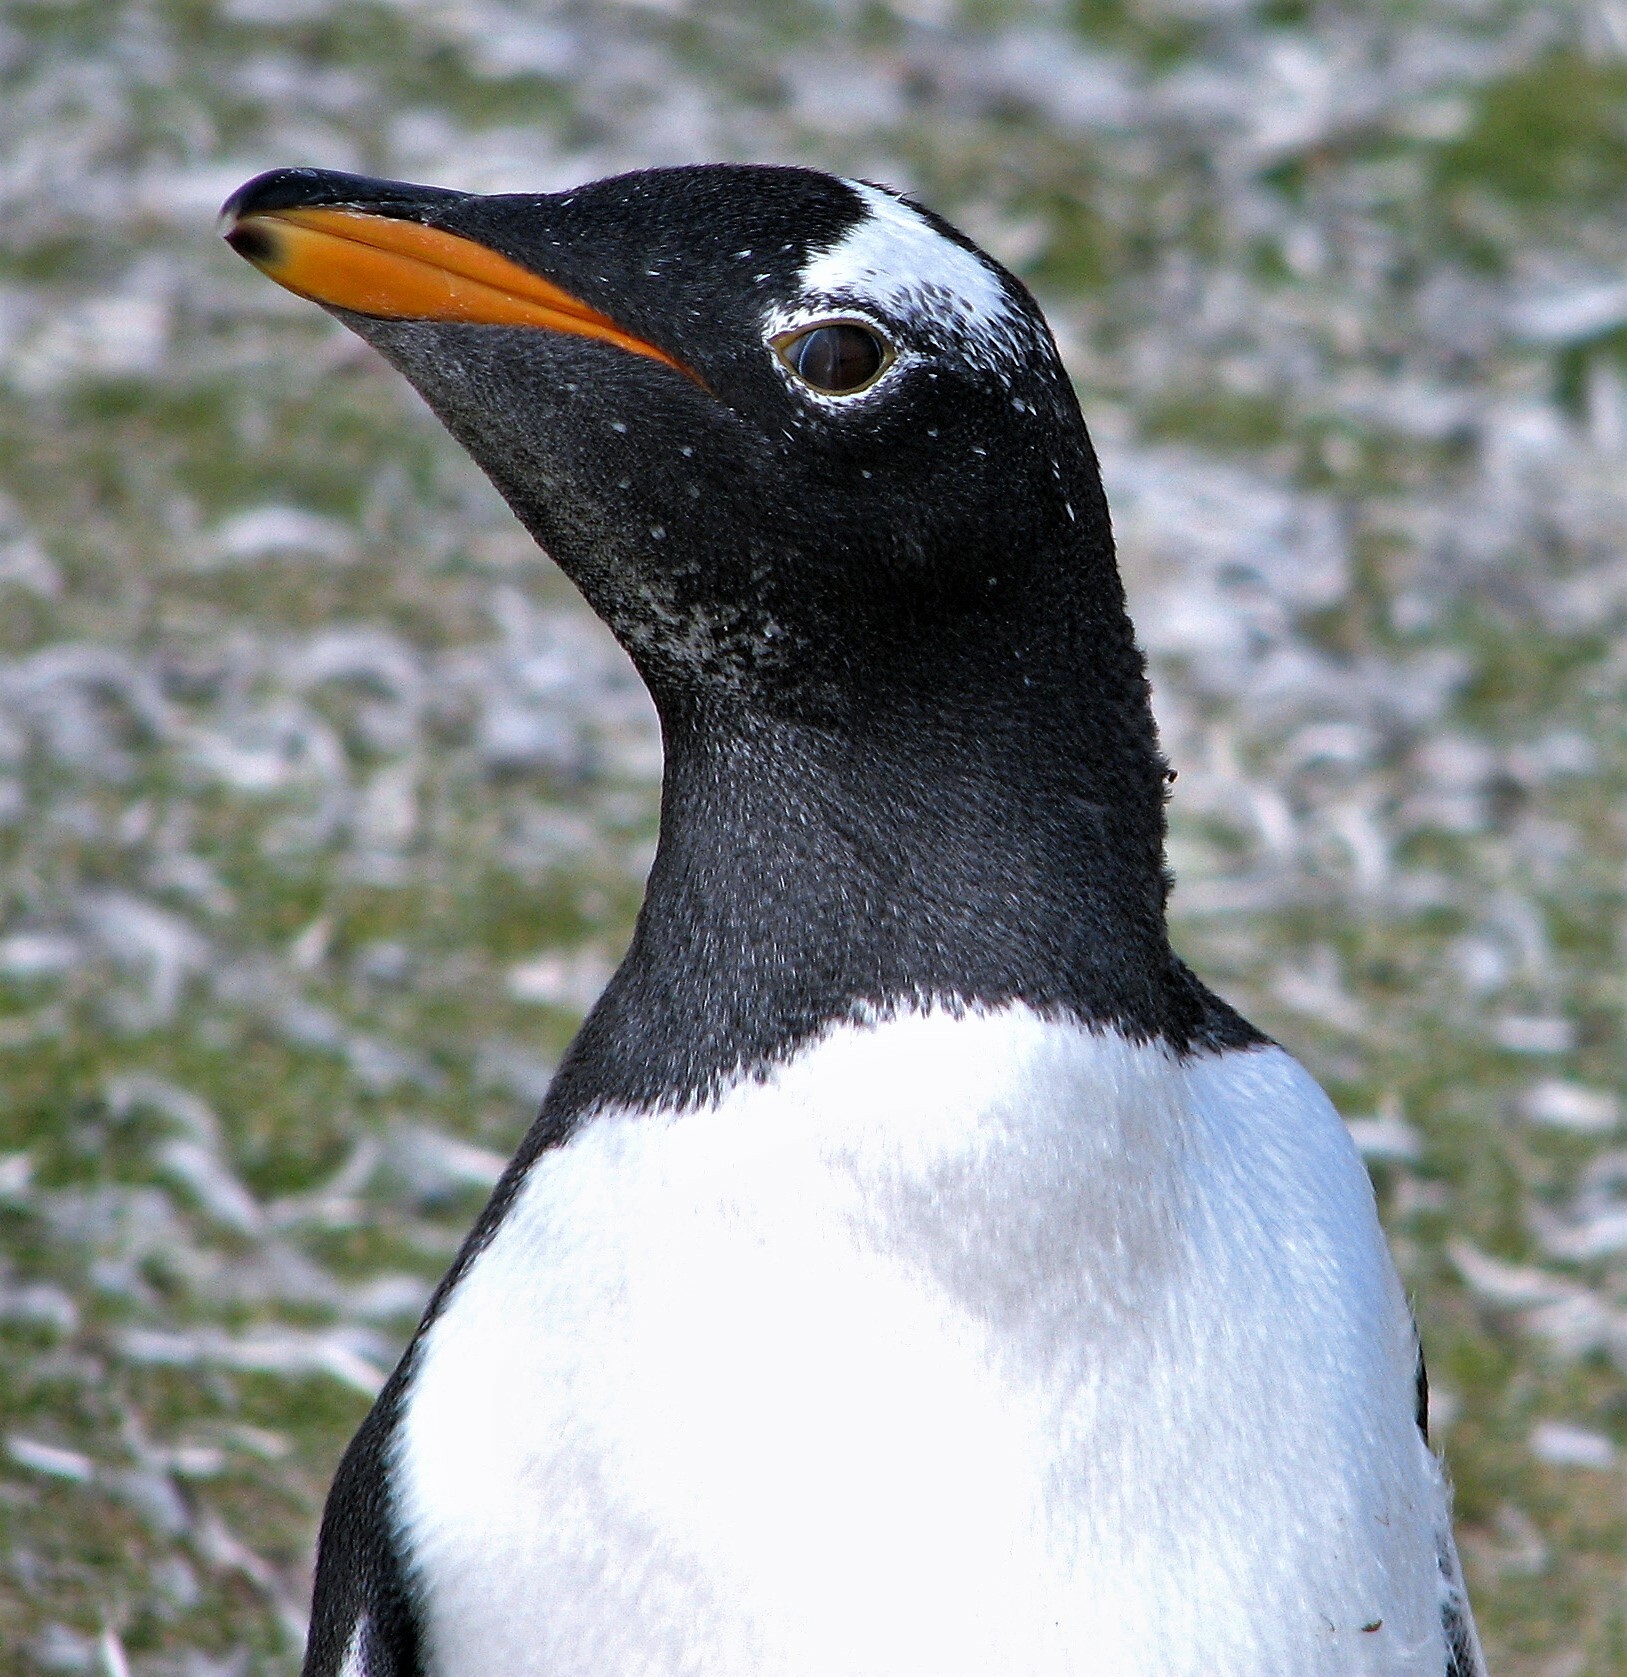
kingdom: Animalia
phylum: Chordata
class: Aves
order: Sphenisciformes
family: Spheniscidae
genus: Pygoscelis
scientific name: Pygoscelis papua
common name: Gentoo penguin
